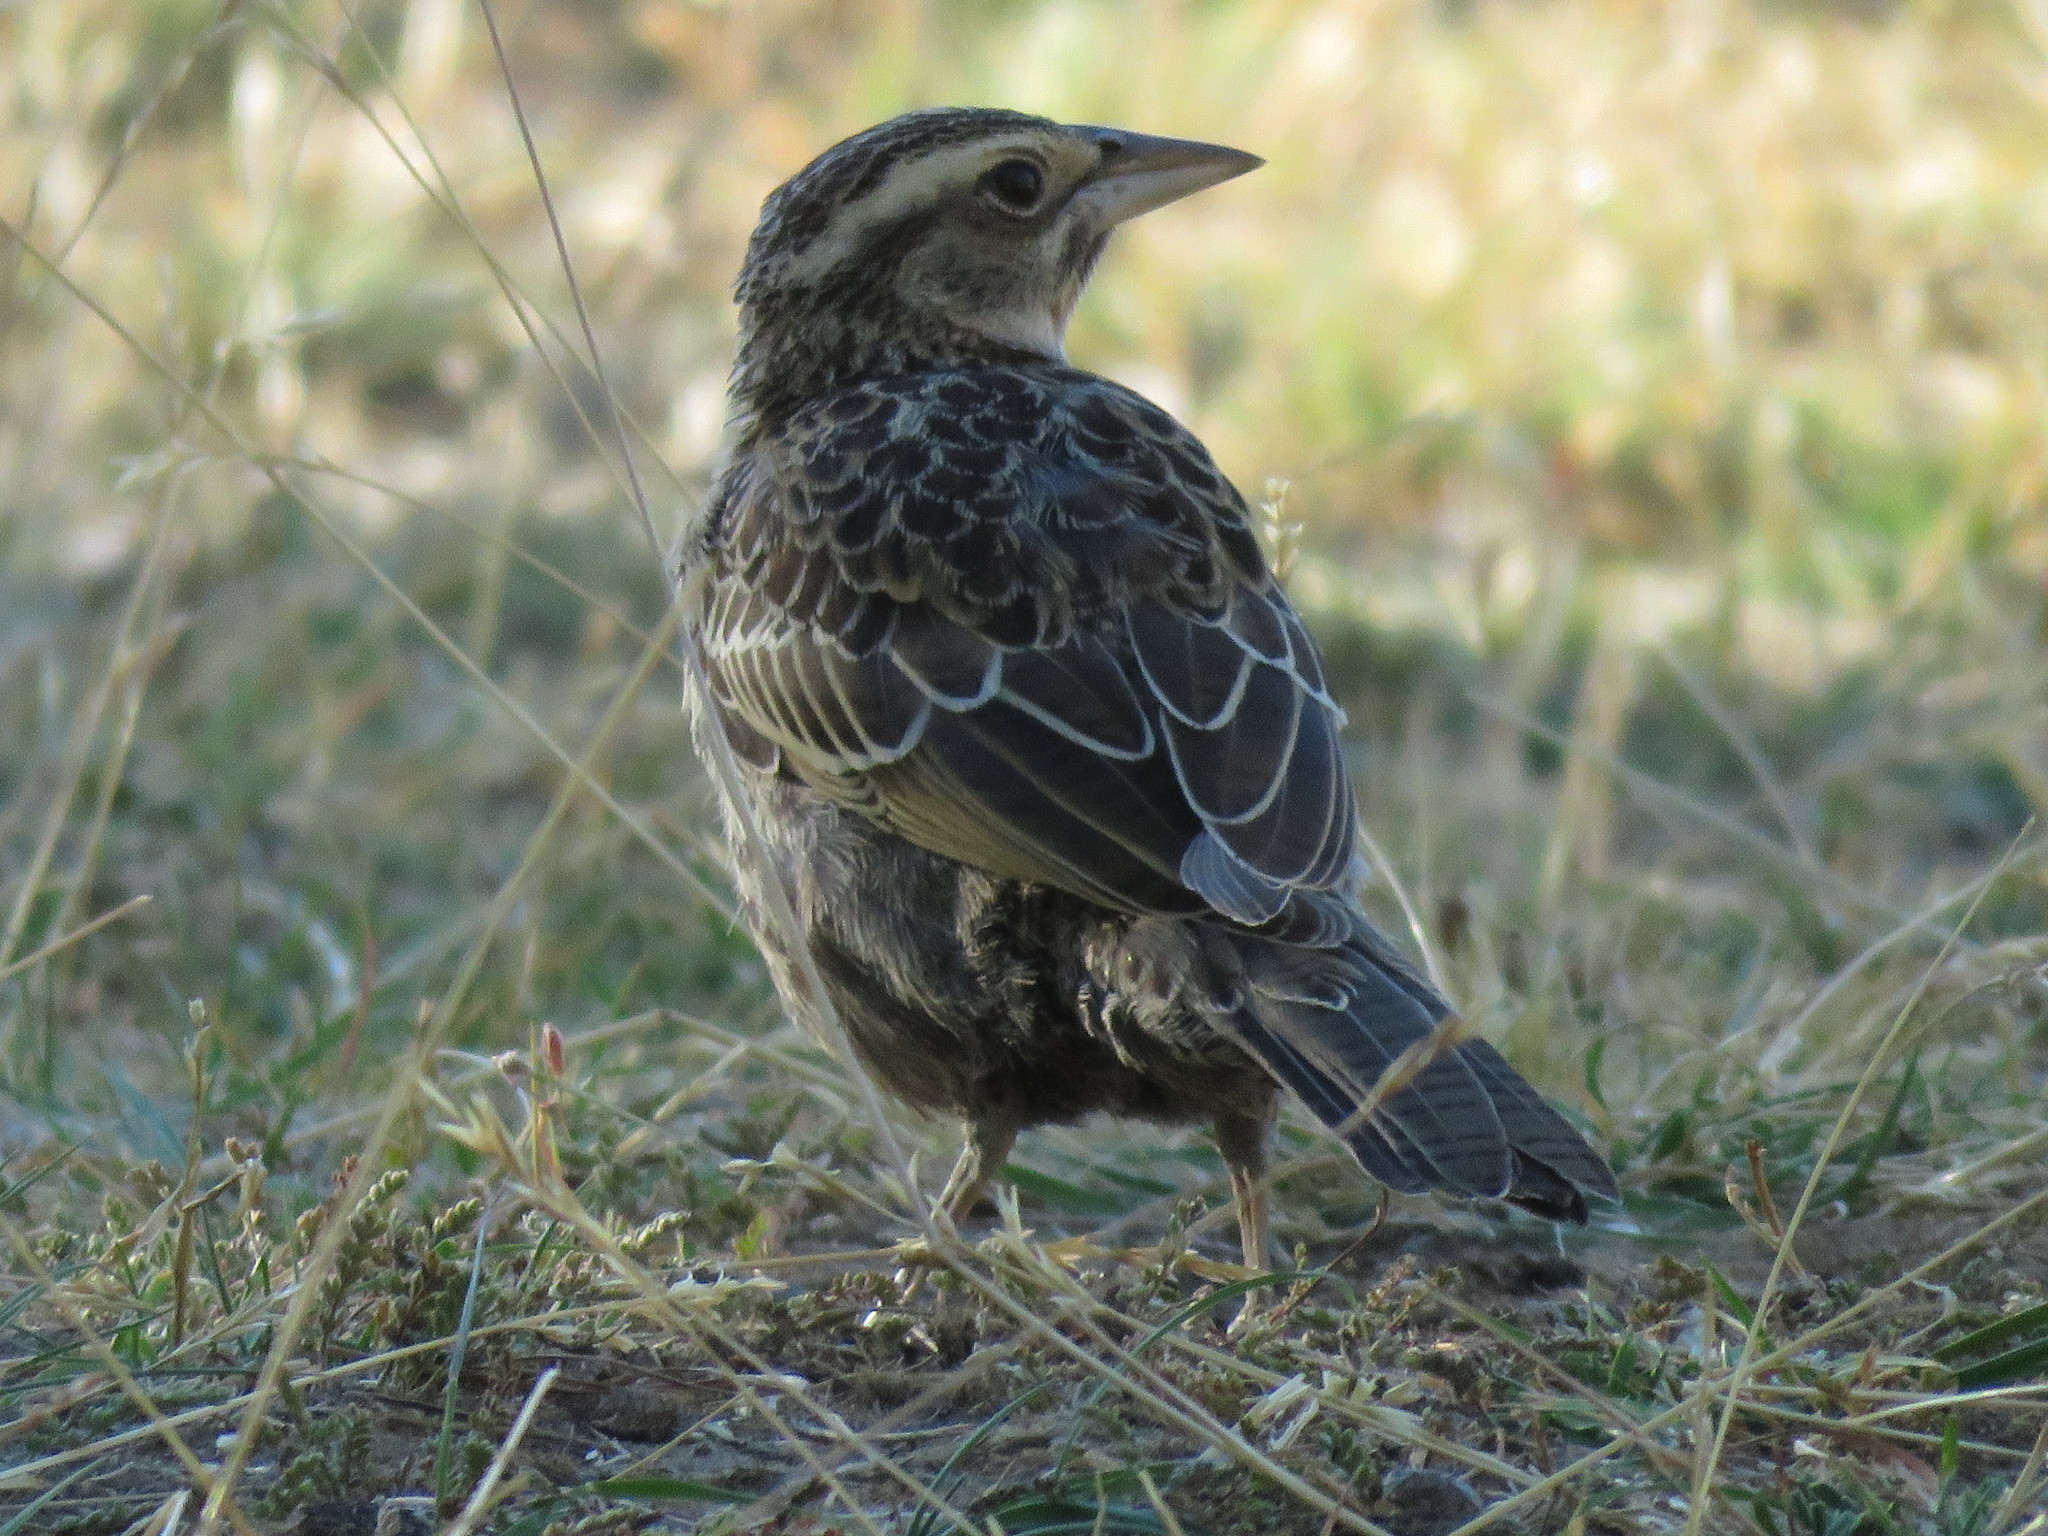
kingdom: Animalia
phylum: Chordata
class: Aves
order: Passeriformes
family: Icteridae
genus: Sturnella
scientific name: Sturnella loyca
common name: Long-tailed meadowlark
